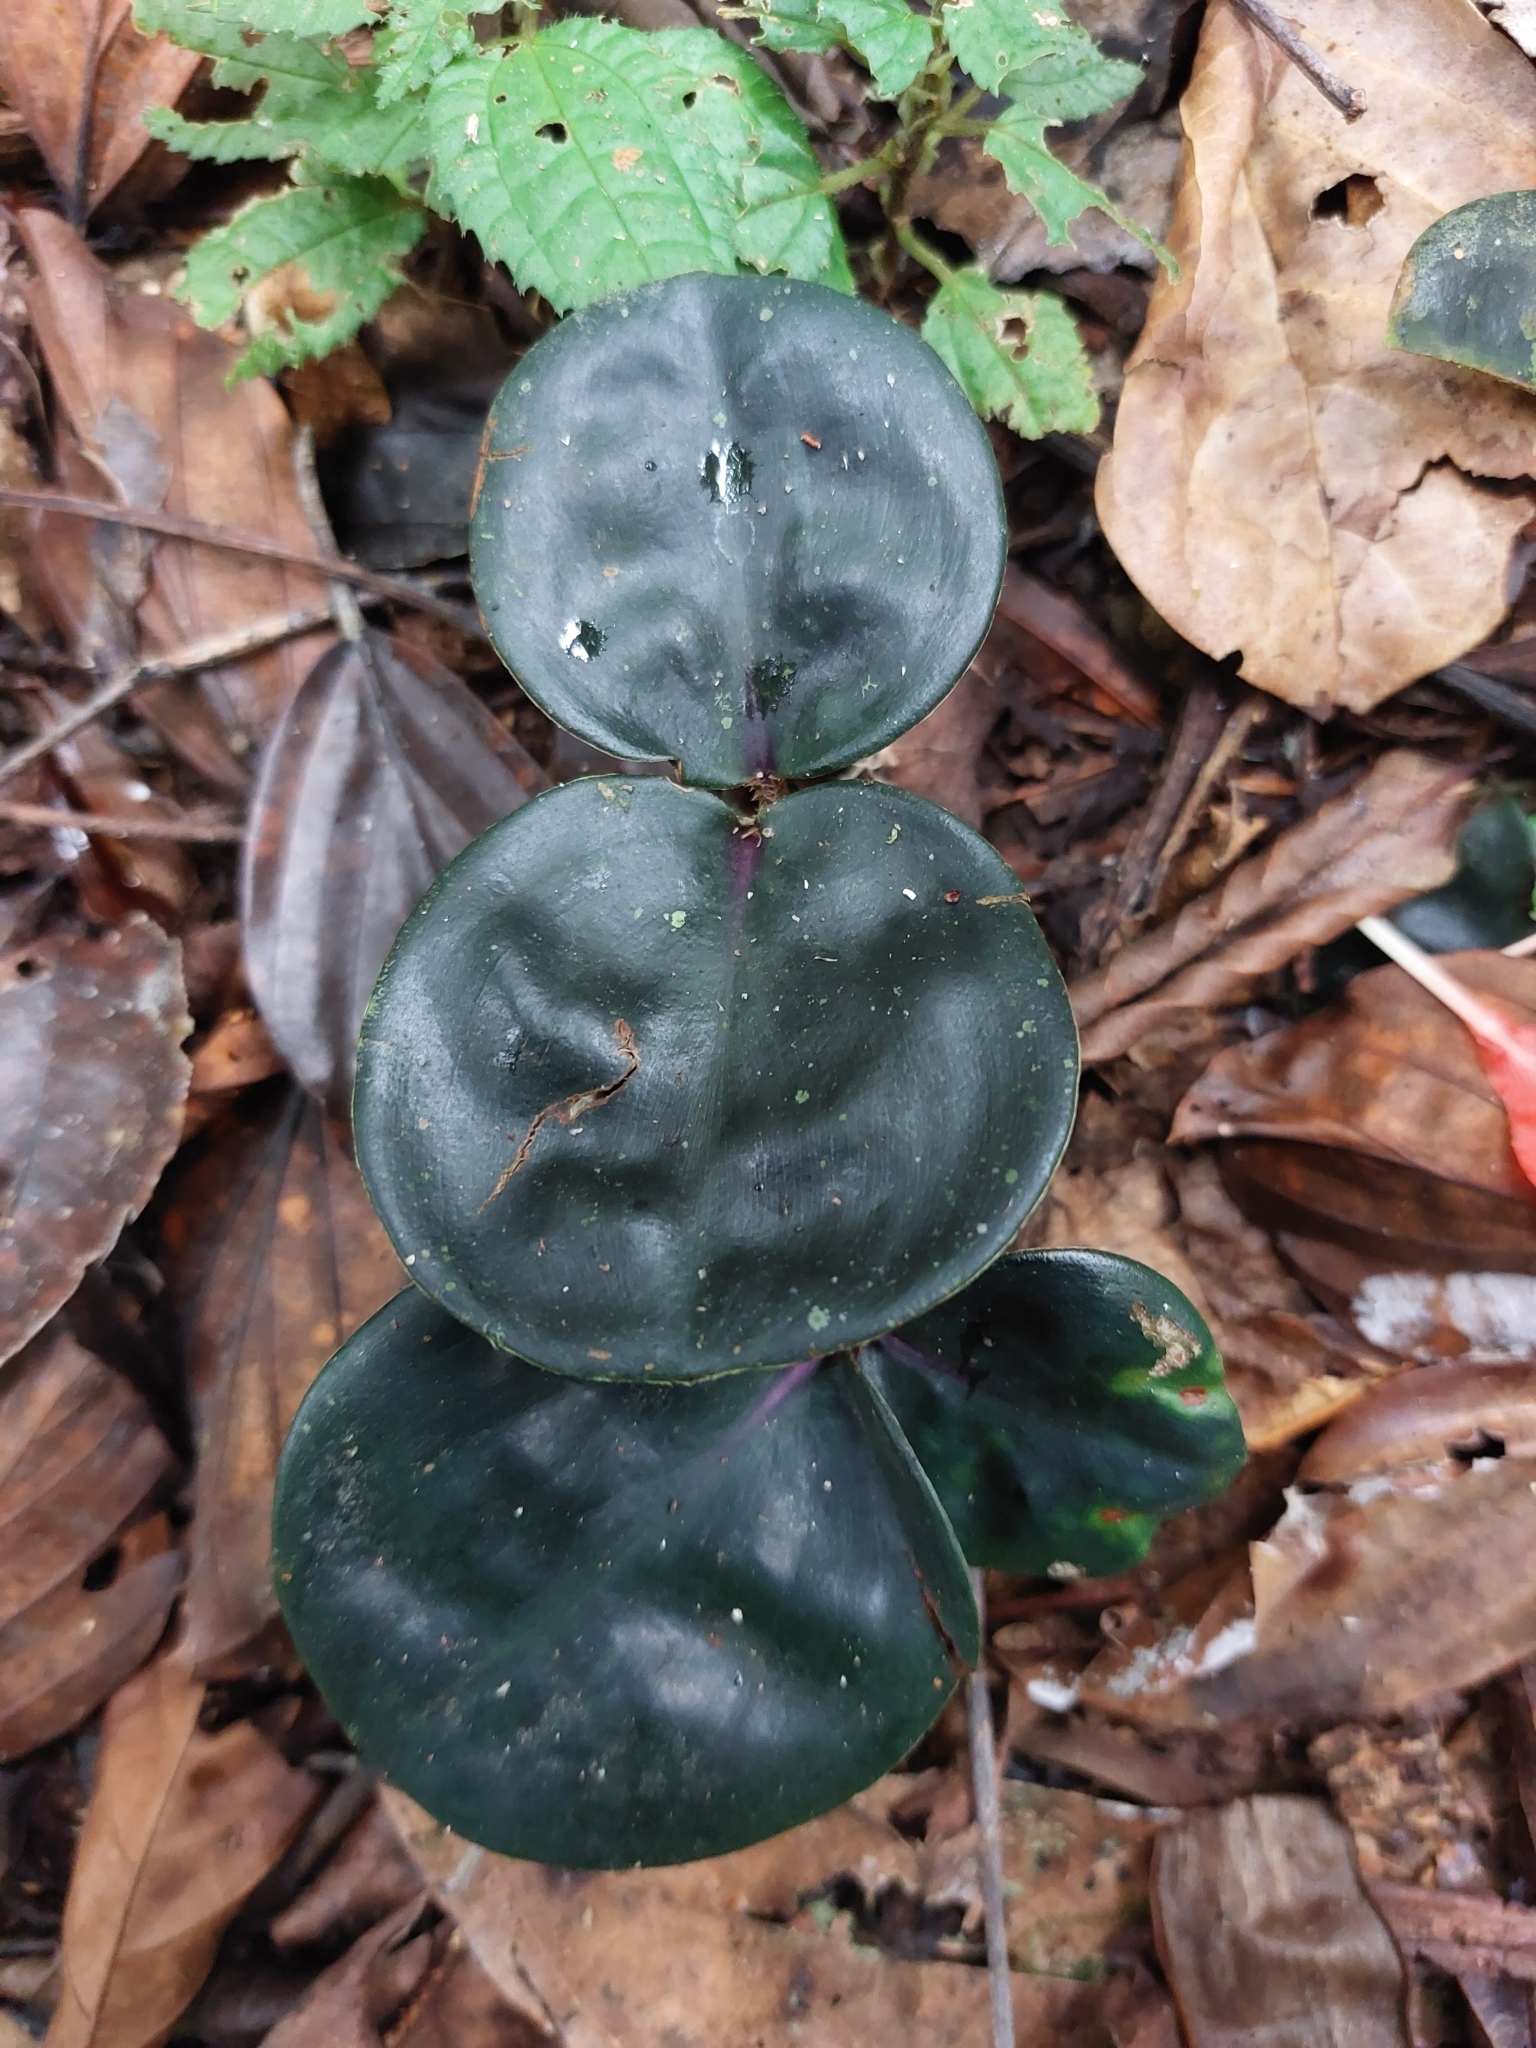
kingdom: Plantae
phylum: Tracheophyta
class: Liliopsida
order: Commelinales
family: Commelinaceae
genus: Geogenanthus
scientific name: Geogenanthus ciliatus
